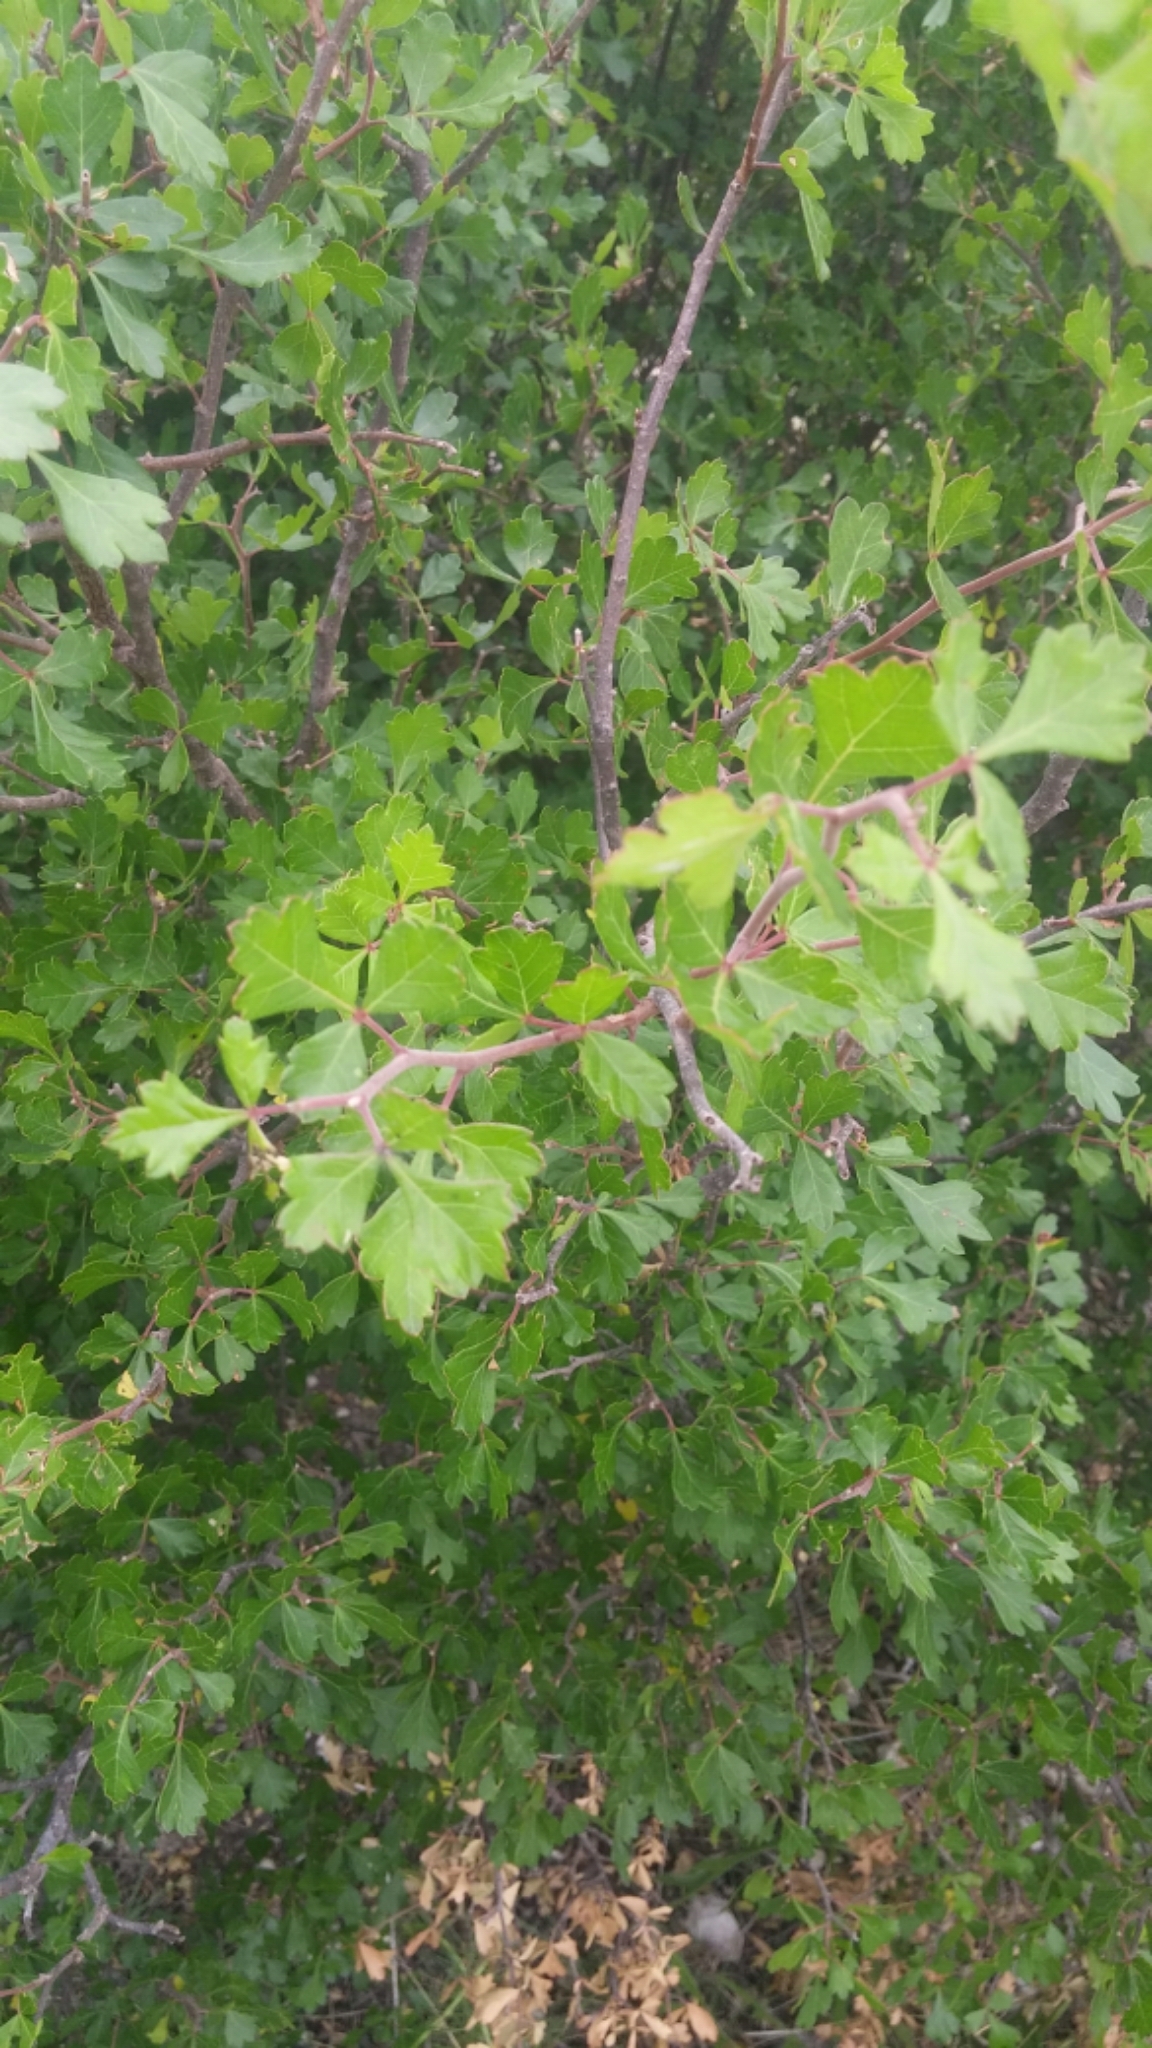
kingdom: Plantae
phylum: Tracheophyta
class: Magnoliopsida
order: Sapindales
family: Anacardiaceae
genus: Rhus
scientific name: Rhus aromatica
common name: Aromatic sumac
